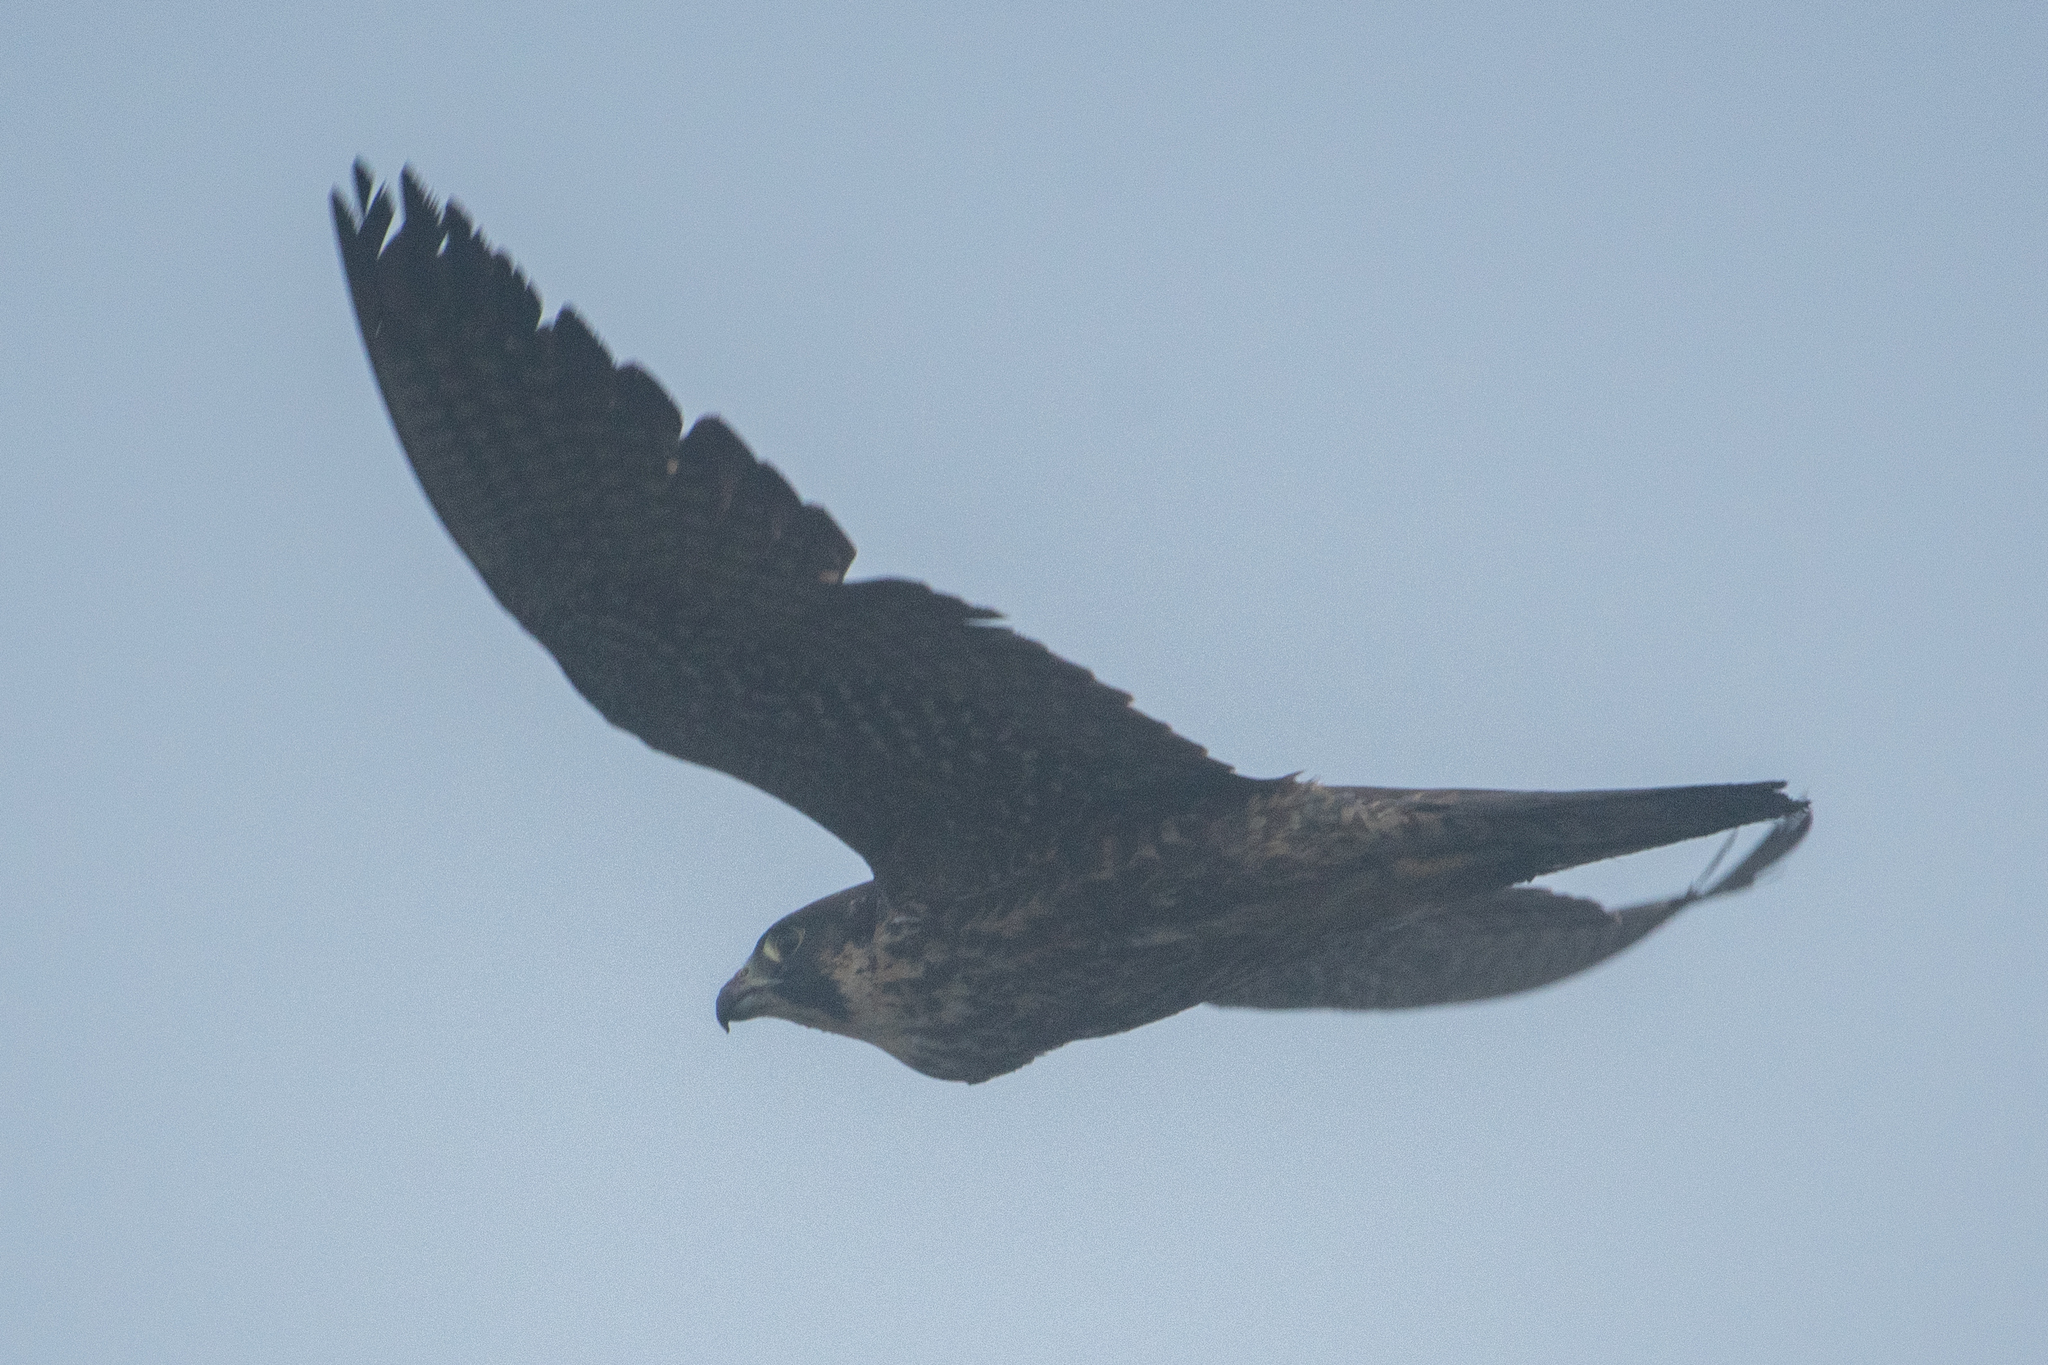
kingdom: Animalia
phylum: Chordata
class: Aves
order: Falconiformes
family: Falconidae
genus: Falco
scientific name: Falco peregrinus
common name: Peregrine falcon
